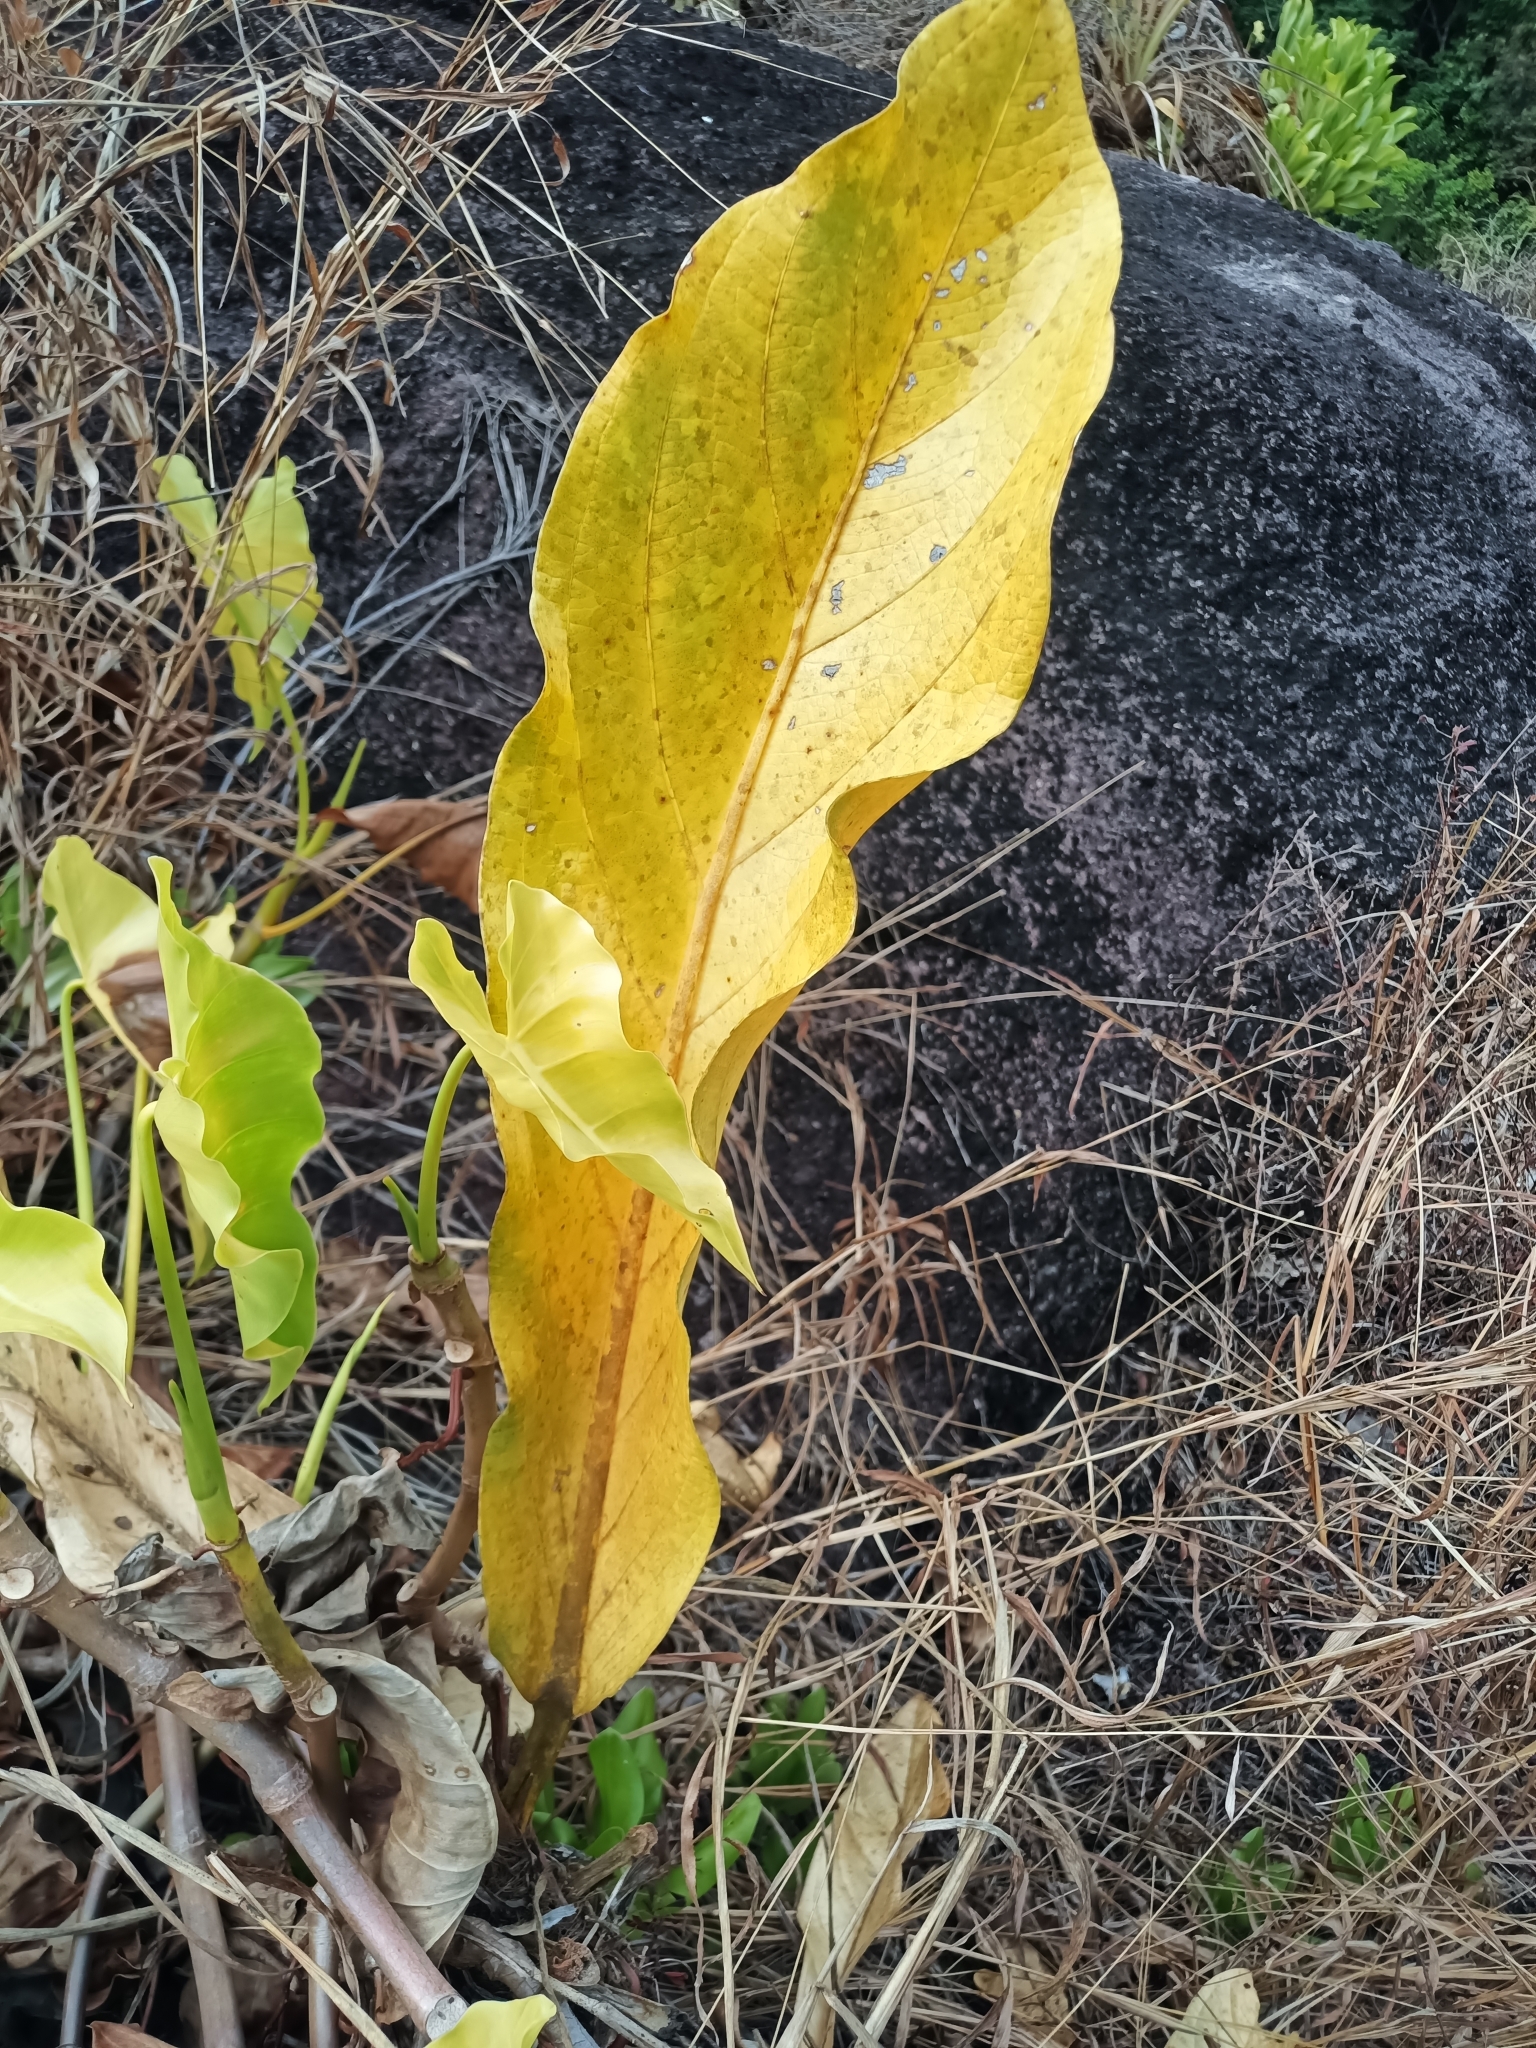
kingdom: Plantae
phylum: Tracheophyta
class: Liliopsida
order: Alismatales
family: Araceae
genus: Anthurium
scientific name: Anthurium jenmanii
